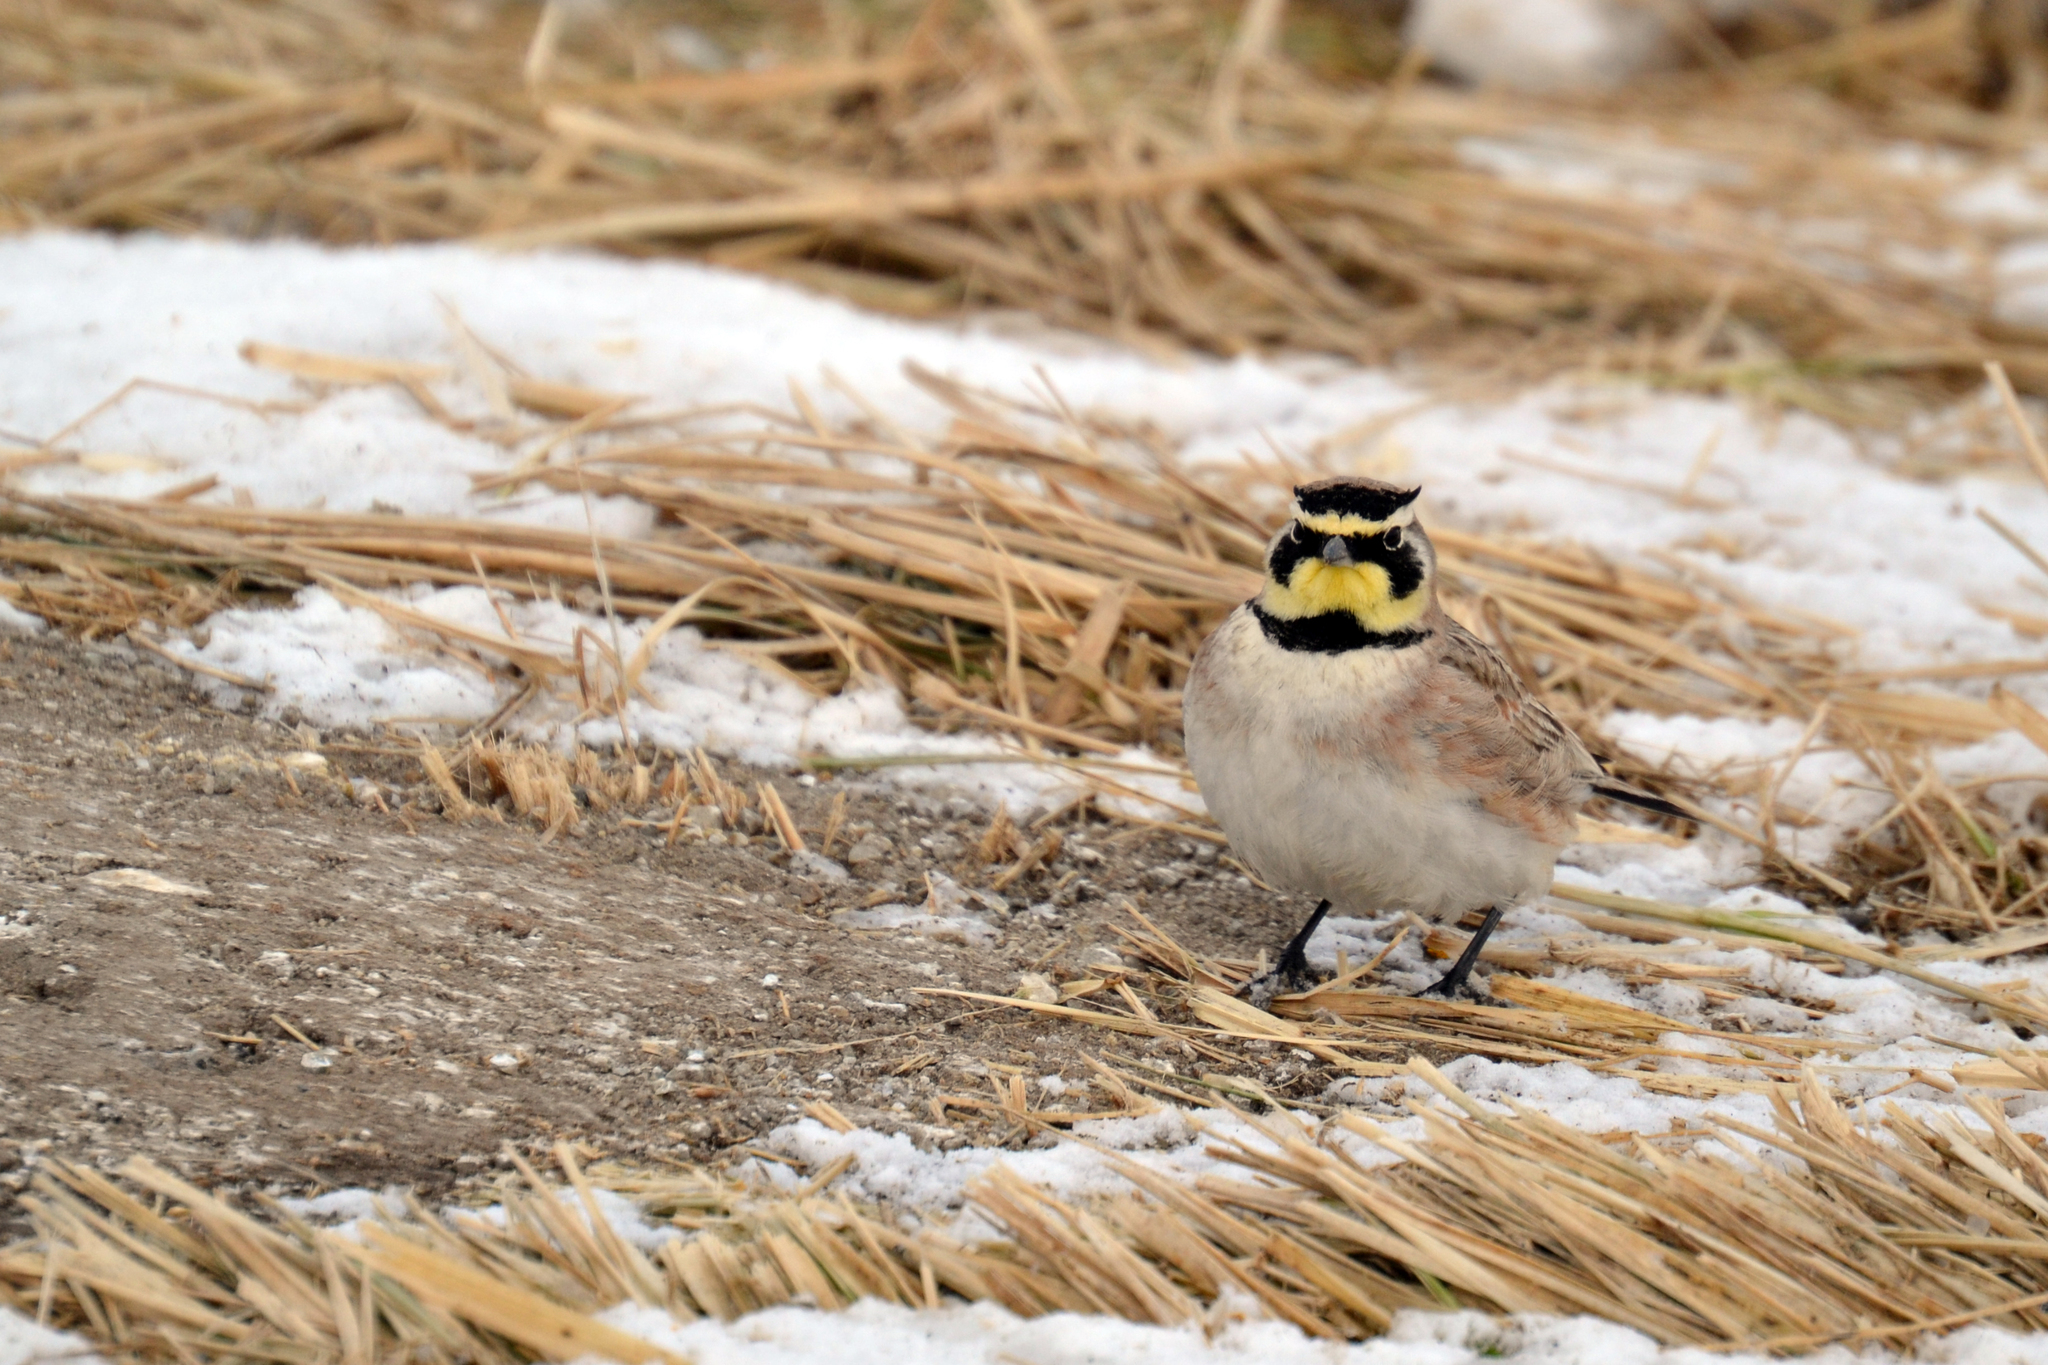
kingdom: Animalia
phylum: Chordata
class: Aves
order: Passeriformes
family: Alaudidae
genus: Eremophila
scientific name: Eremophila alpestris
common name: Horned lark
